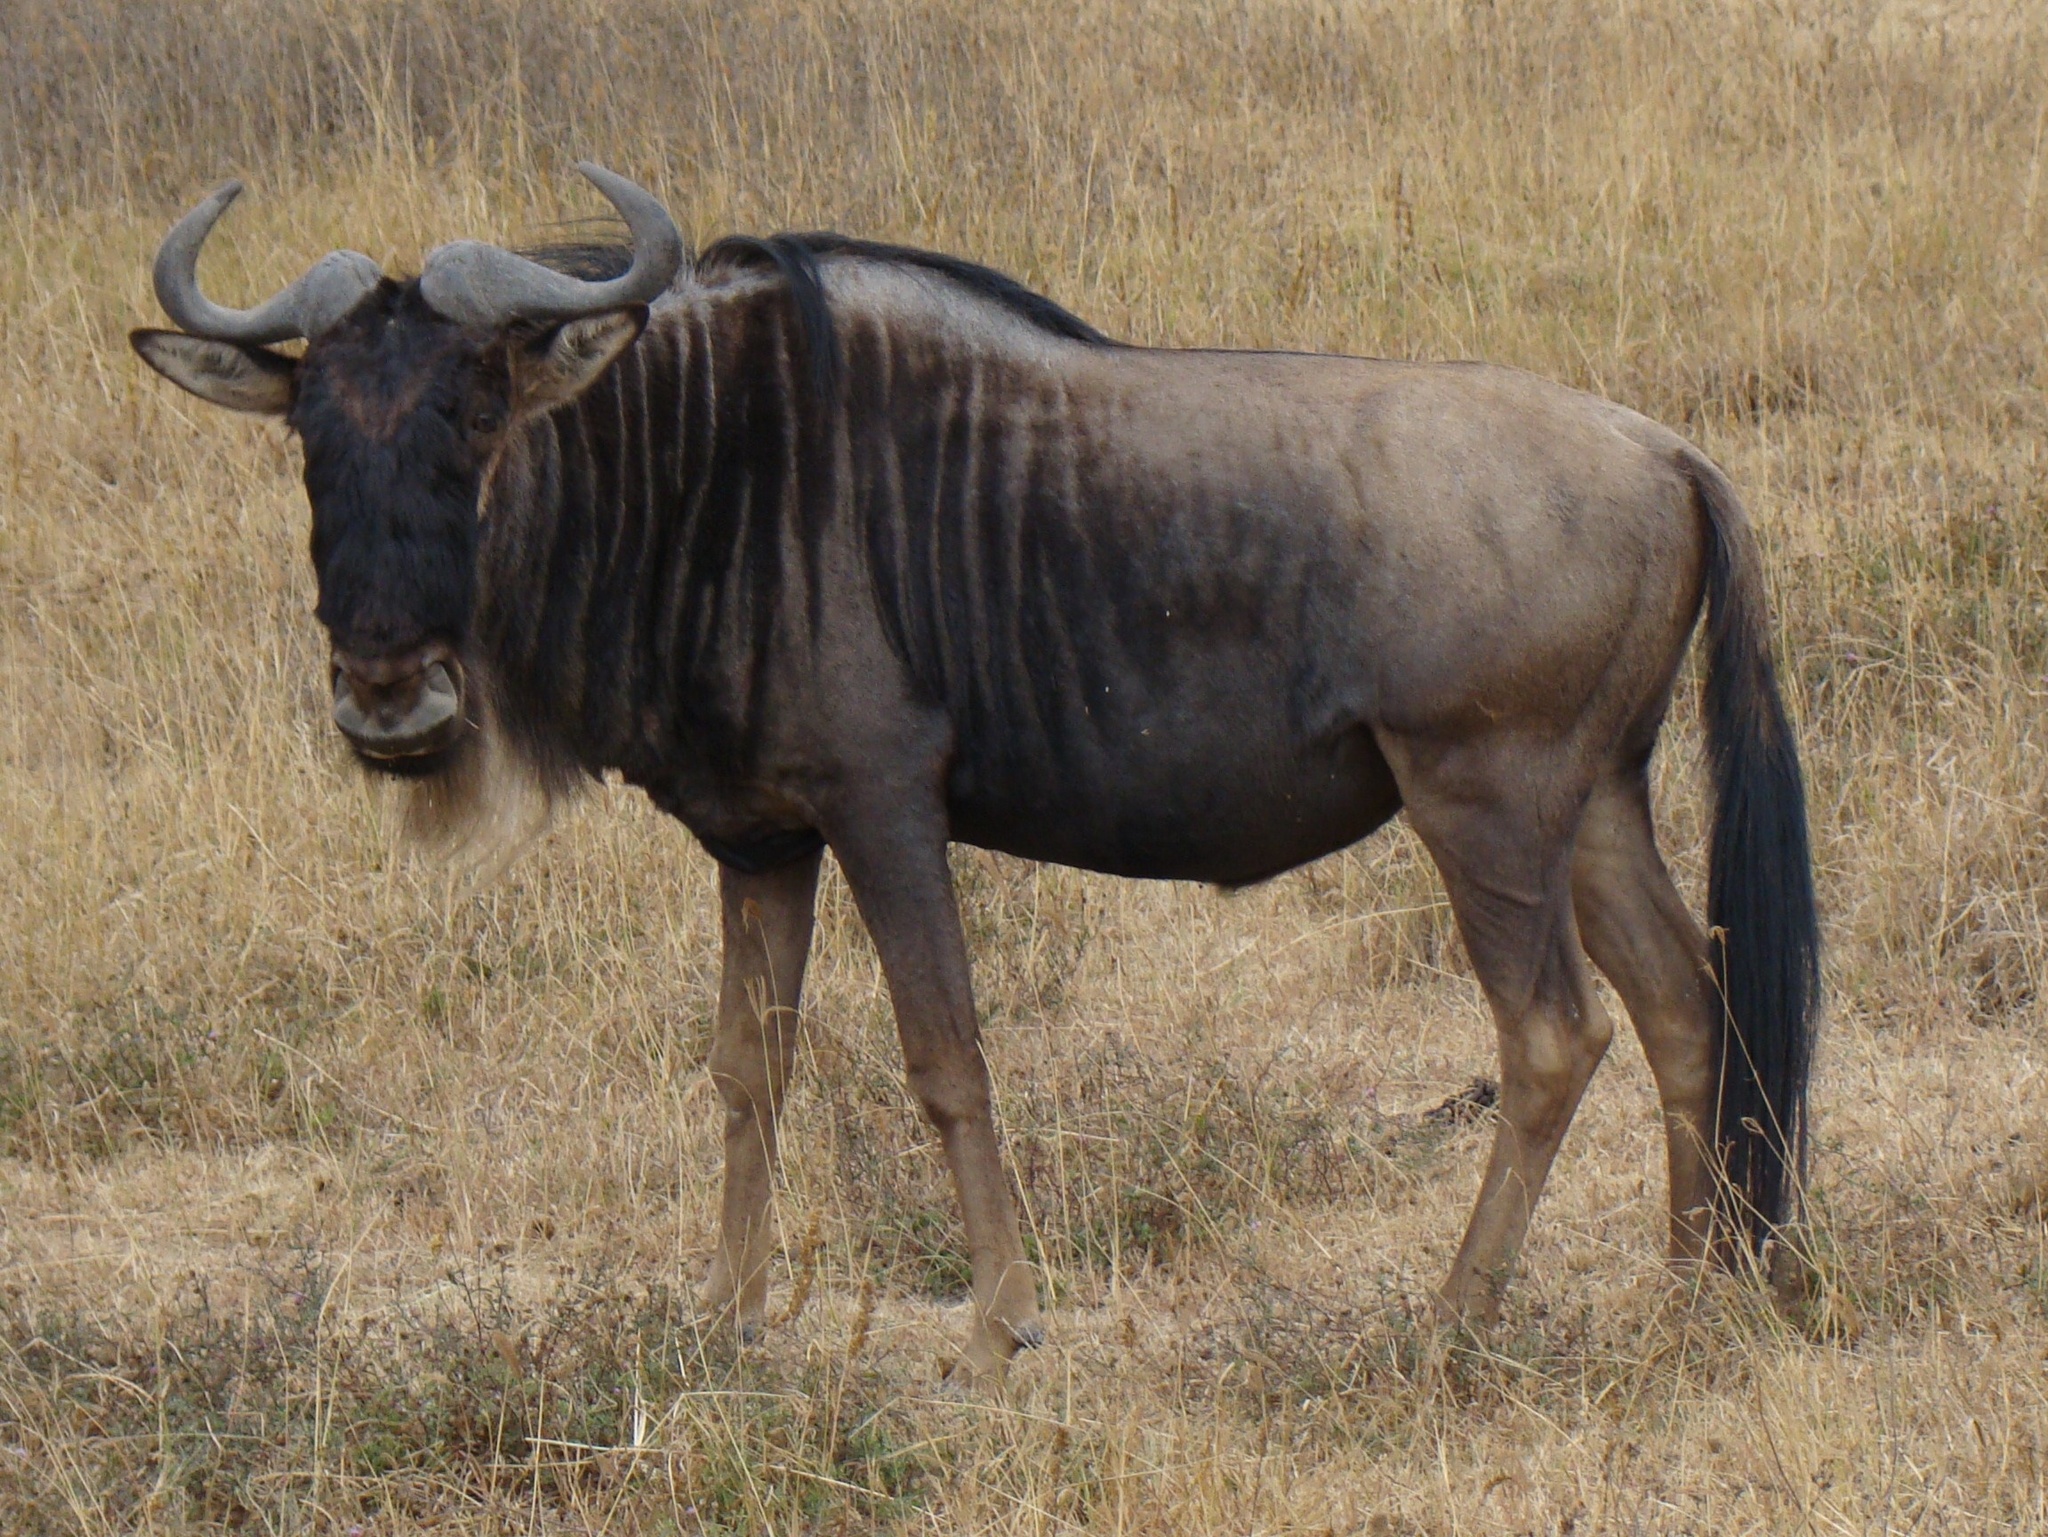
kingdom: Animalia
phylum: Chordata
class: Mammalia
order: Artiodactyla
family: Bovidae
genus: Connochaetes
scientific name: Connochaetes taurinus
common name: Blue wildebeest
